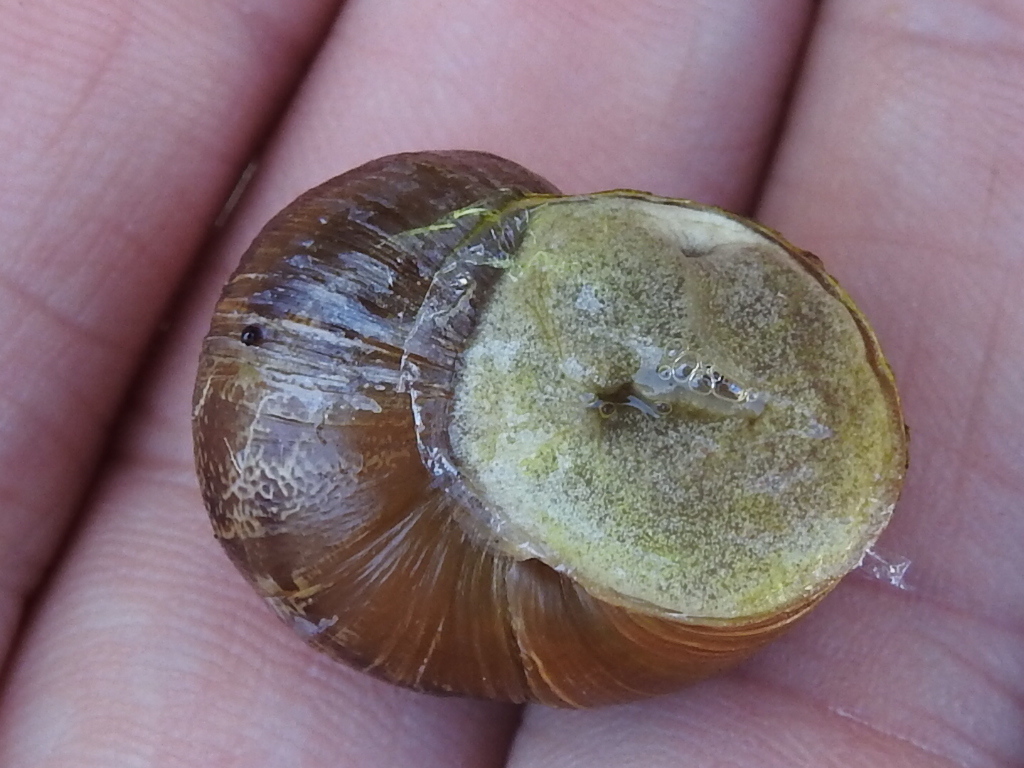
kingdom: Animalia
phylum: Mollusca
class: Gastropoda
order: Stylommatophora
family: Helicidae
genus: Cornu
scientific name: Cornu aspersum
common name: Brown garden snail
